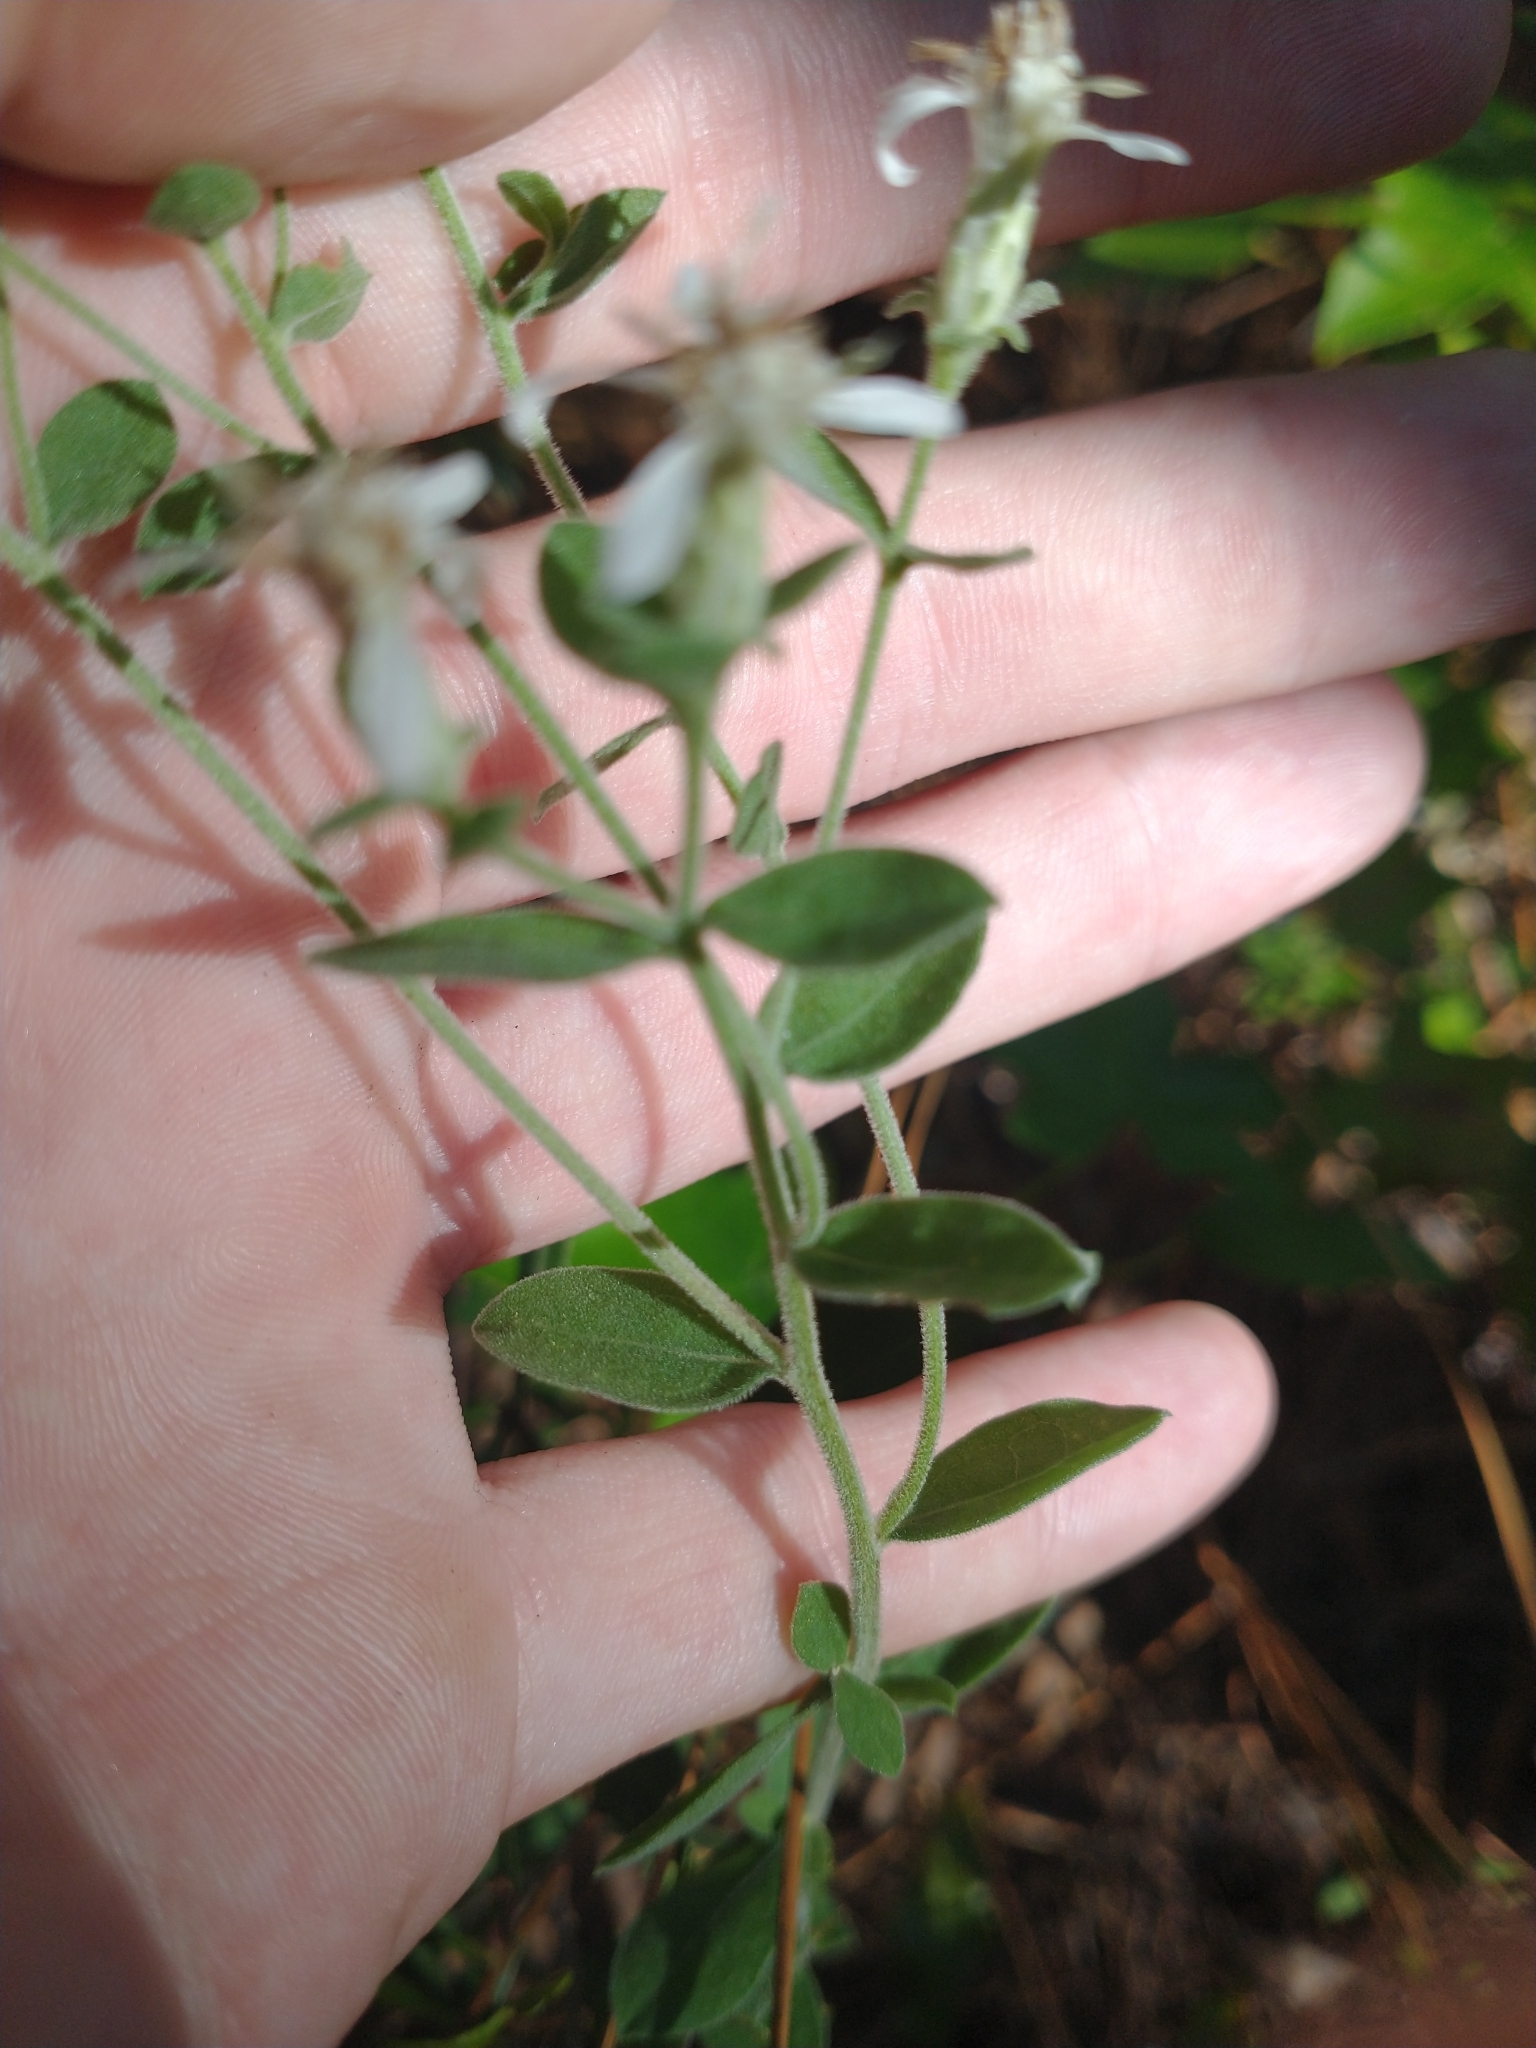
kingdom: Plantae
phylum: Tracheophyta
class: Magnoliopsida
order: Asterales
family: Asteraceae
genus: Sericocarpus
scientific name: Sericocarpus tortifolius
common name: Dixie aster
